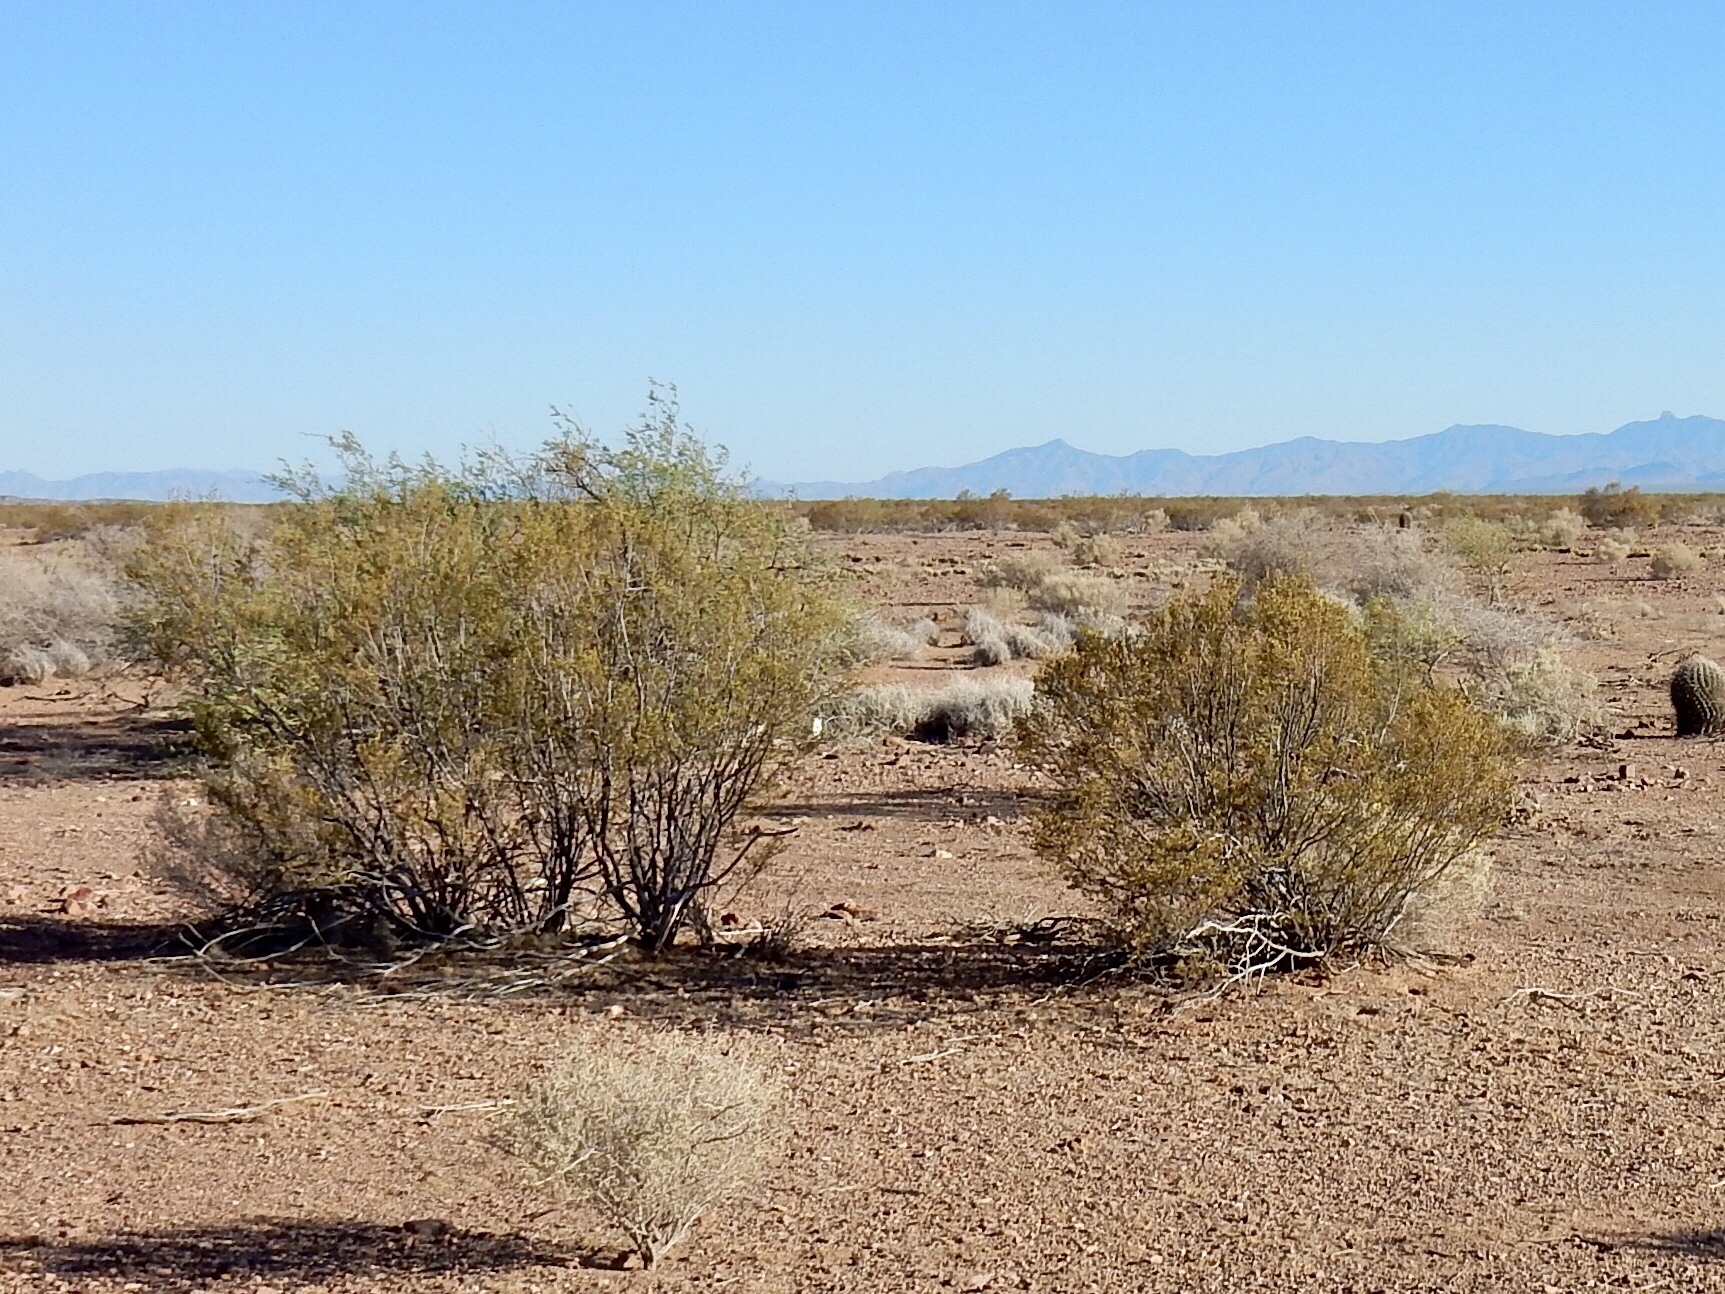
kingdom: Plantae
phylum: Tracheophyta
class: Magnoliopsida
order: Zygophyllales
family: Zygophyllaceae
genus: Larrea
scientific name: Larrea tridentata
